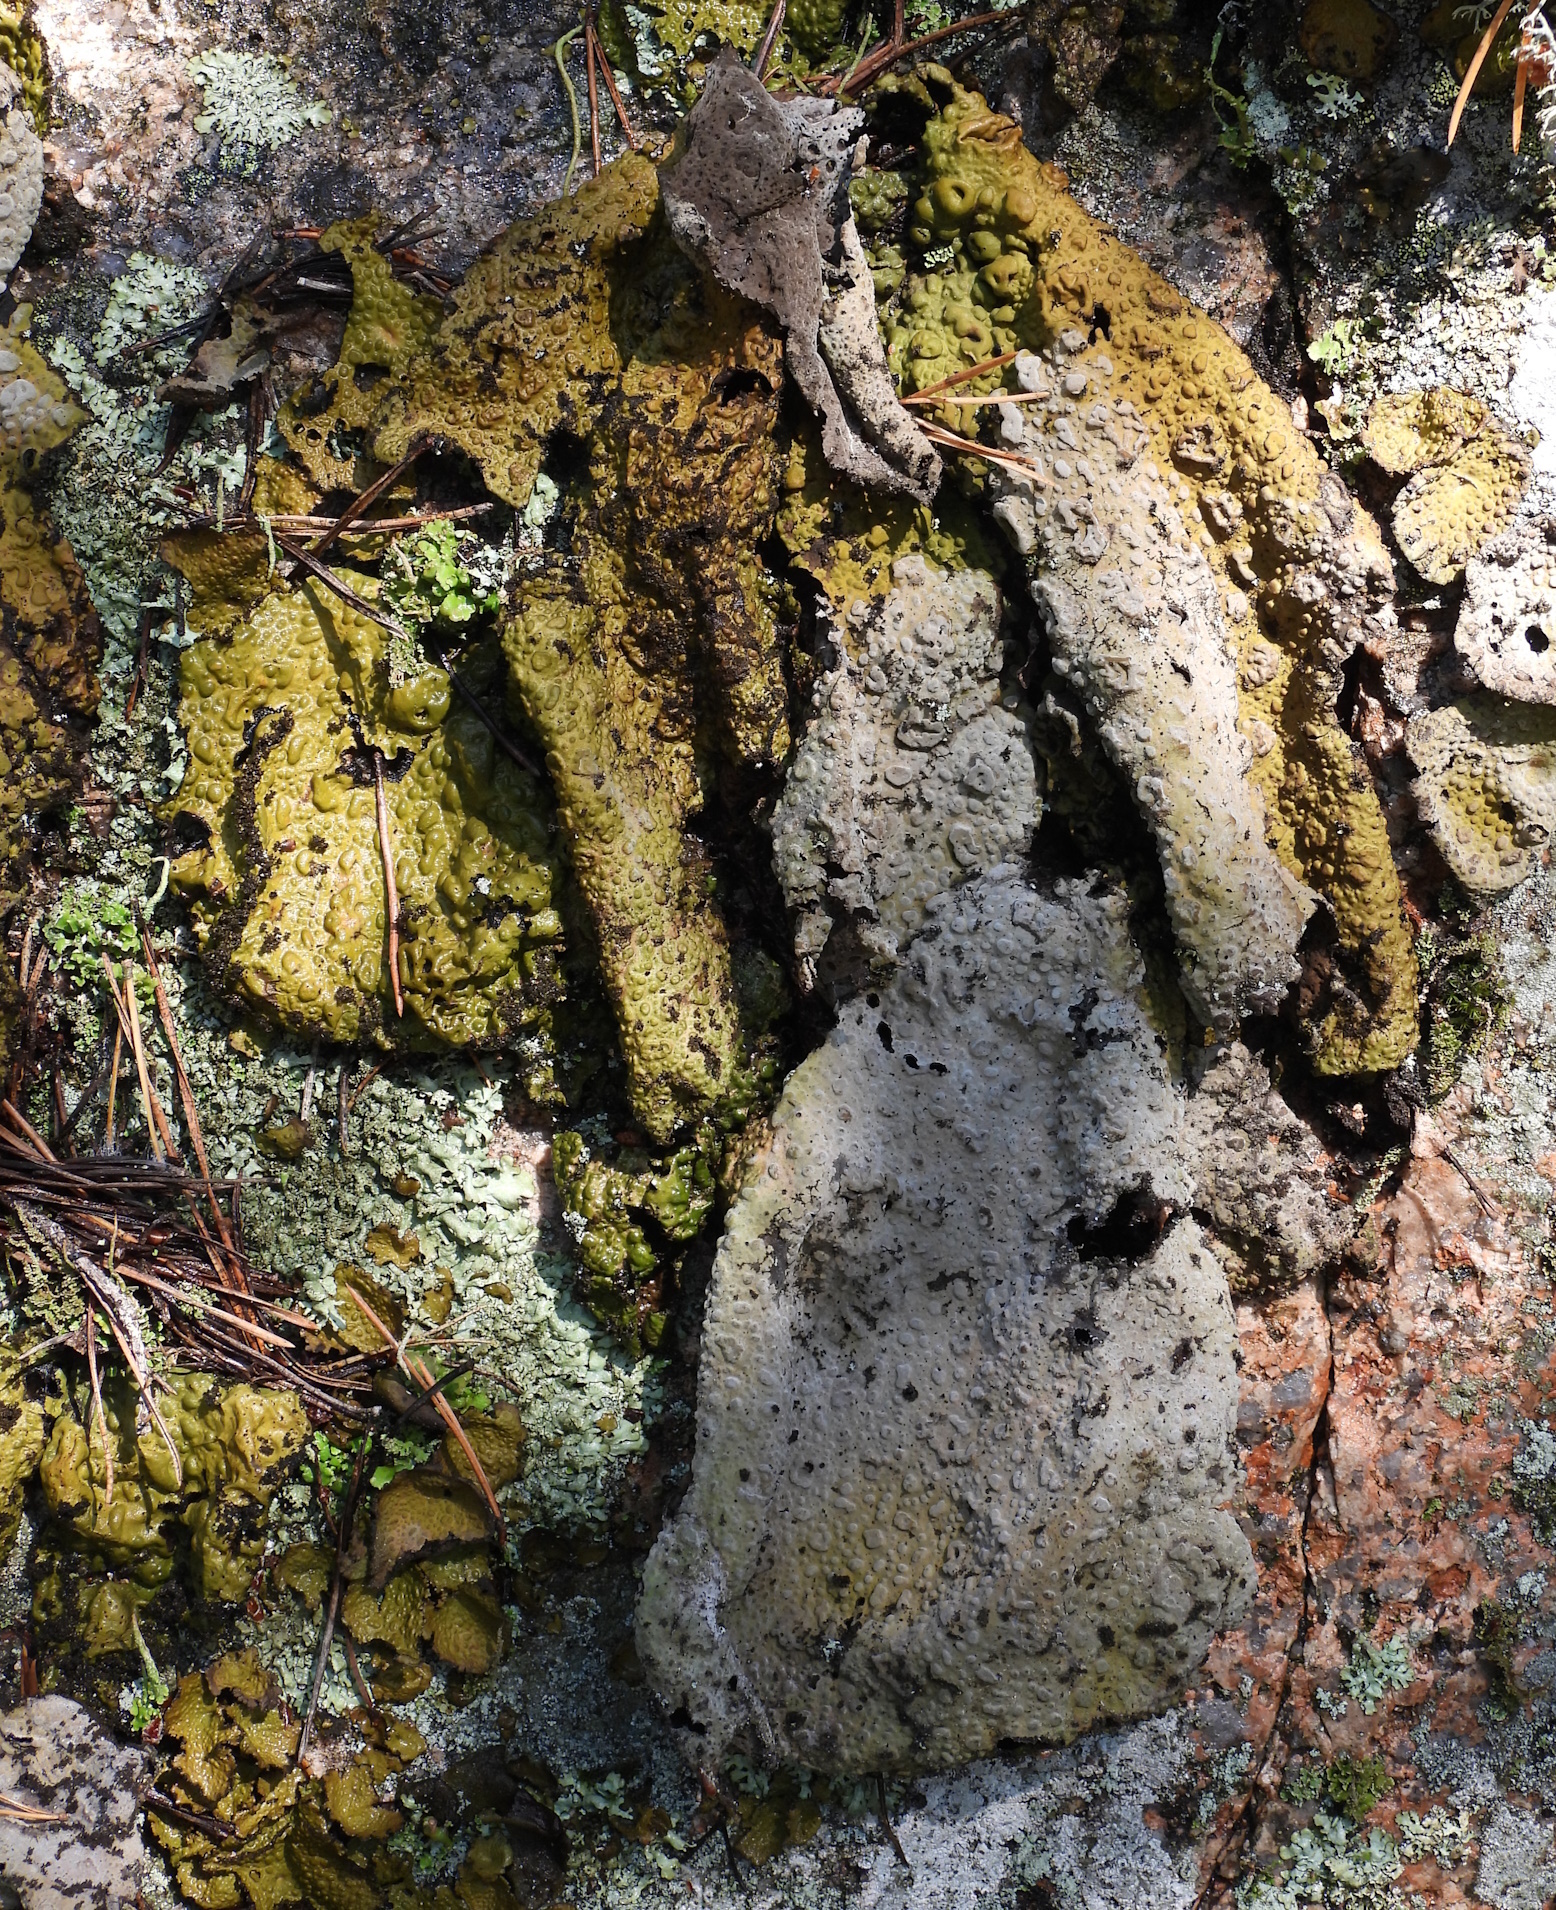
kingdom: Fungi
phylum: Ascomycota
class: Lecanoromycetes
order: Umbilicariales
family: Umbilicariaceae
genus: Lasallia
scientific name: Lasallia pustulata
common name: Blistered toadskin lichen
